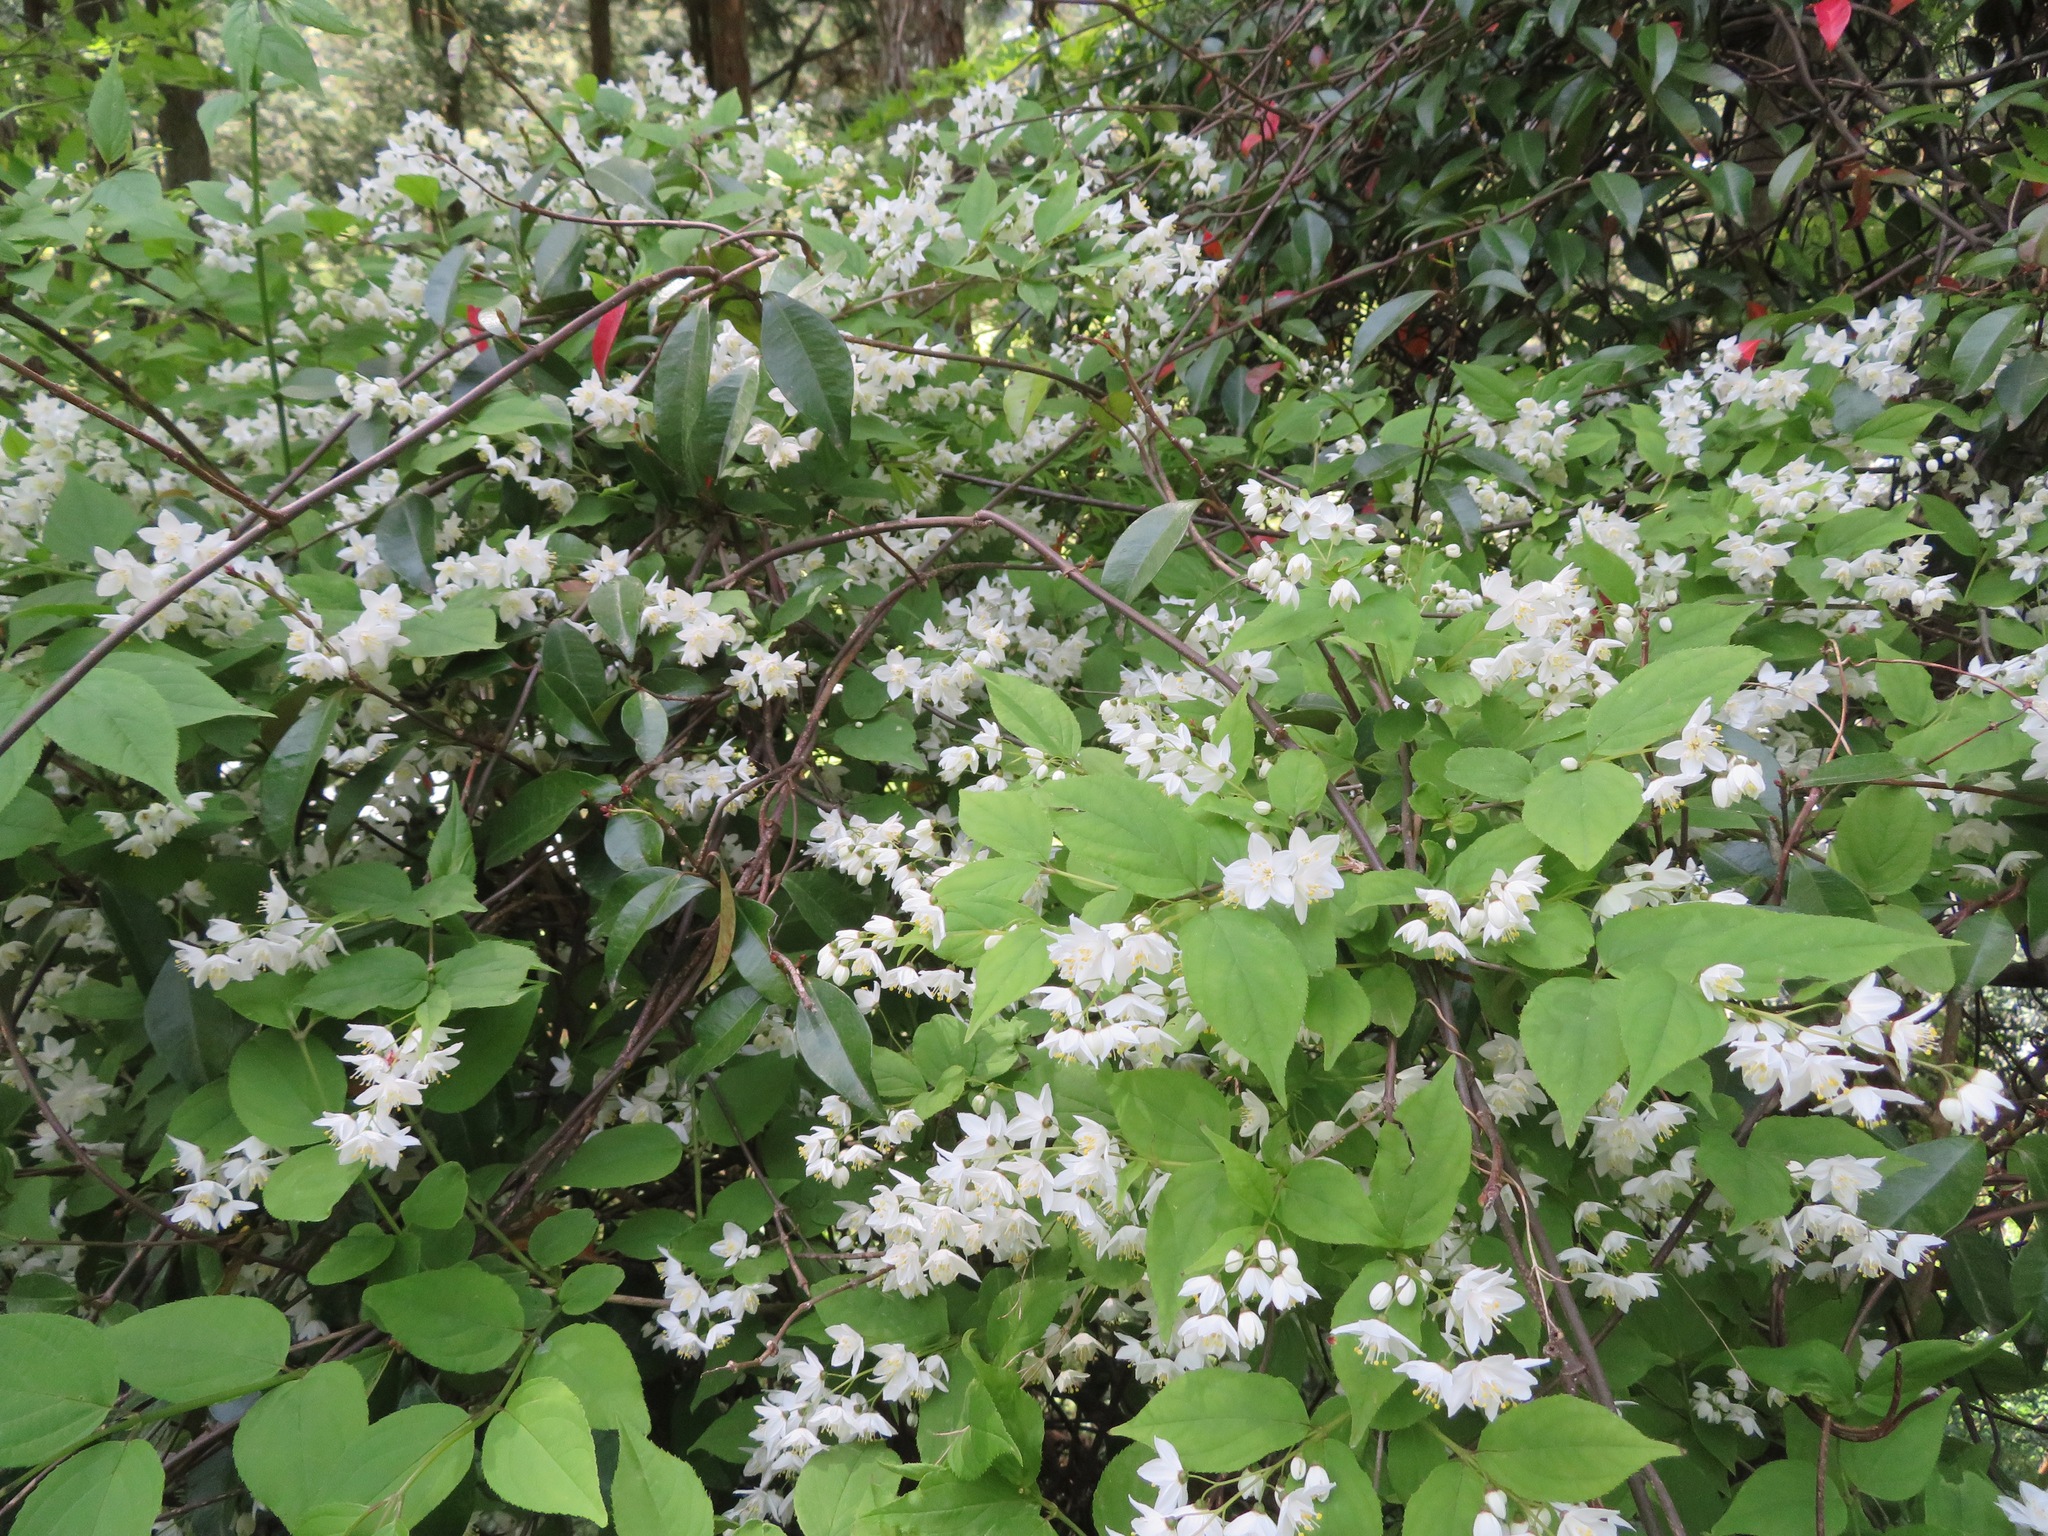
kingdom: Plantae
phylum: Tracheophyta
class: Magnoliopsida
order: Cornales
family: Hydrangeaceae
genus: Deutzia
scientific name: Deutzia gracilis
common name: Slender pride of rochester
